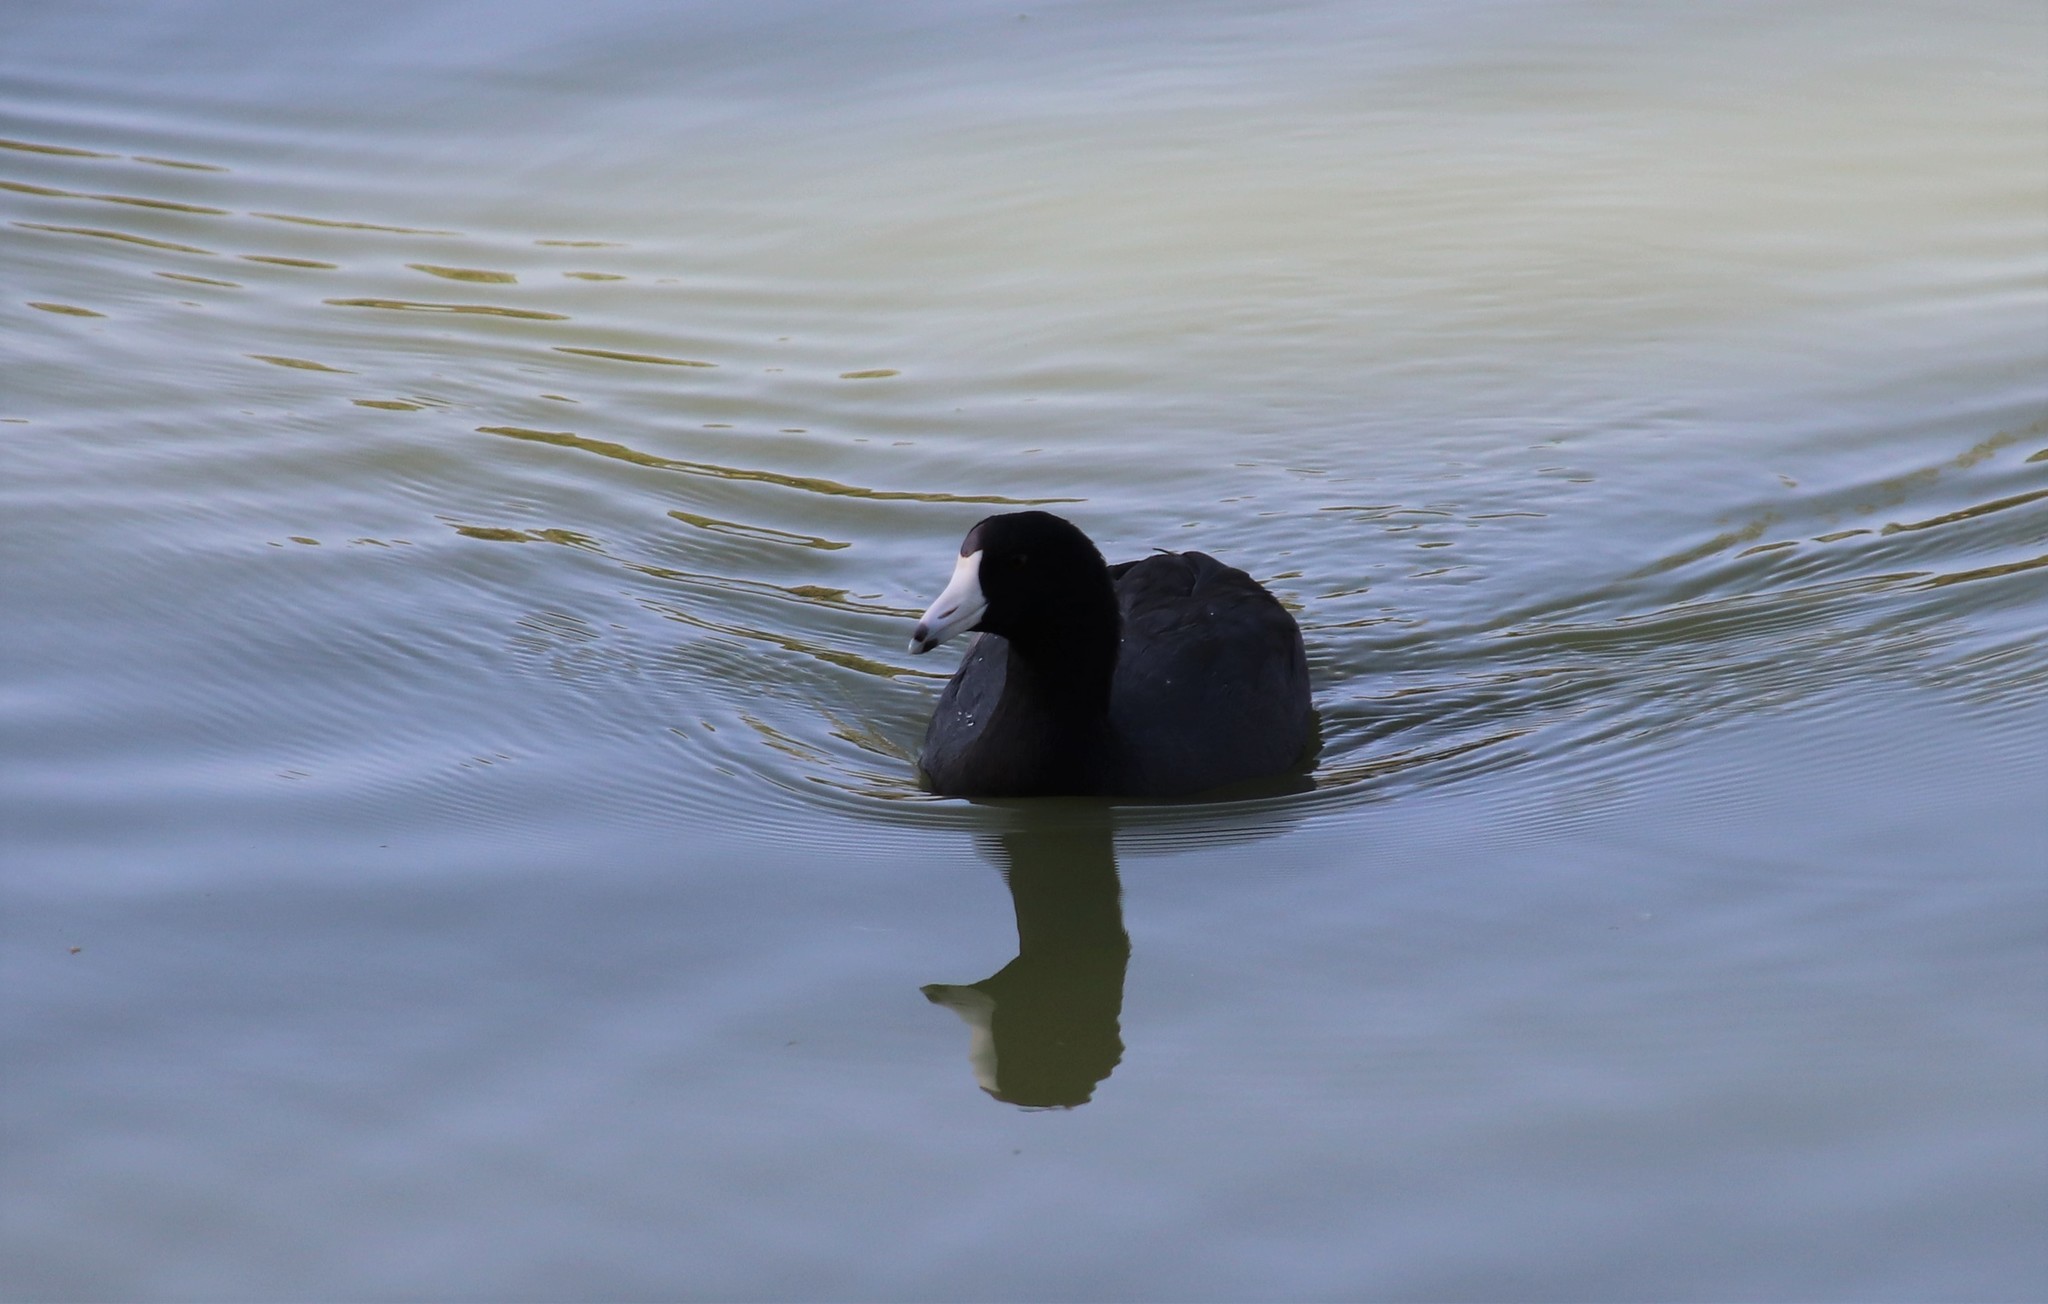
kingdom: Animalia
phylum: Chordata
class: Aves
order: Gruiformes
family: Rallidae
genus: Fulica
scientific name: Fulica americana
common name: American coot
